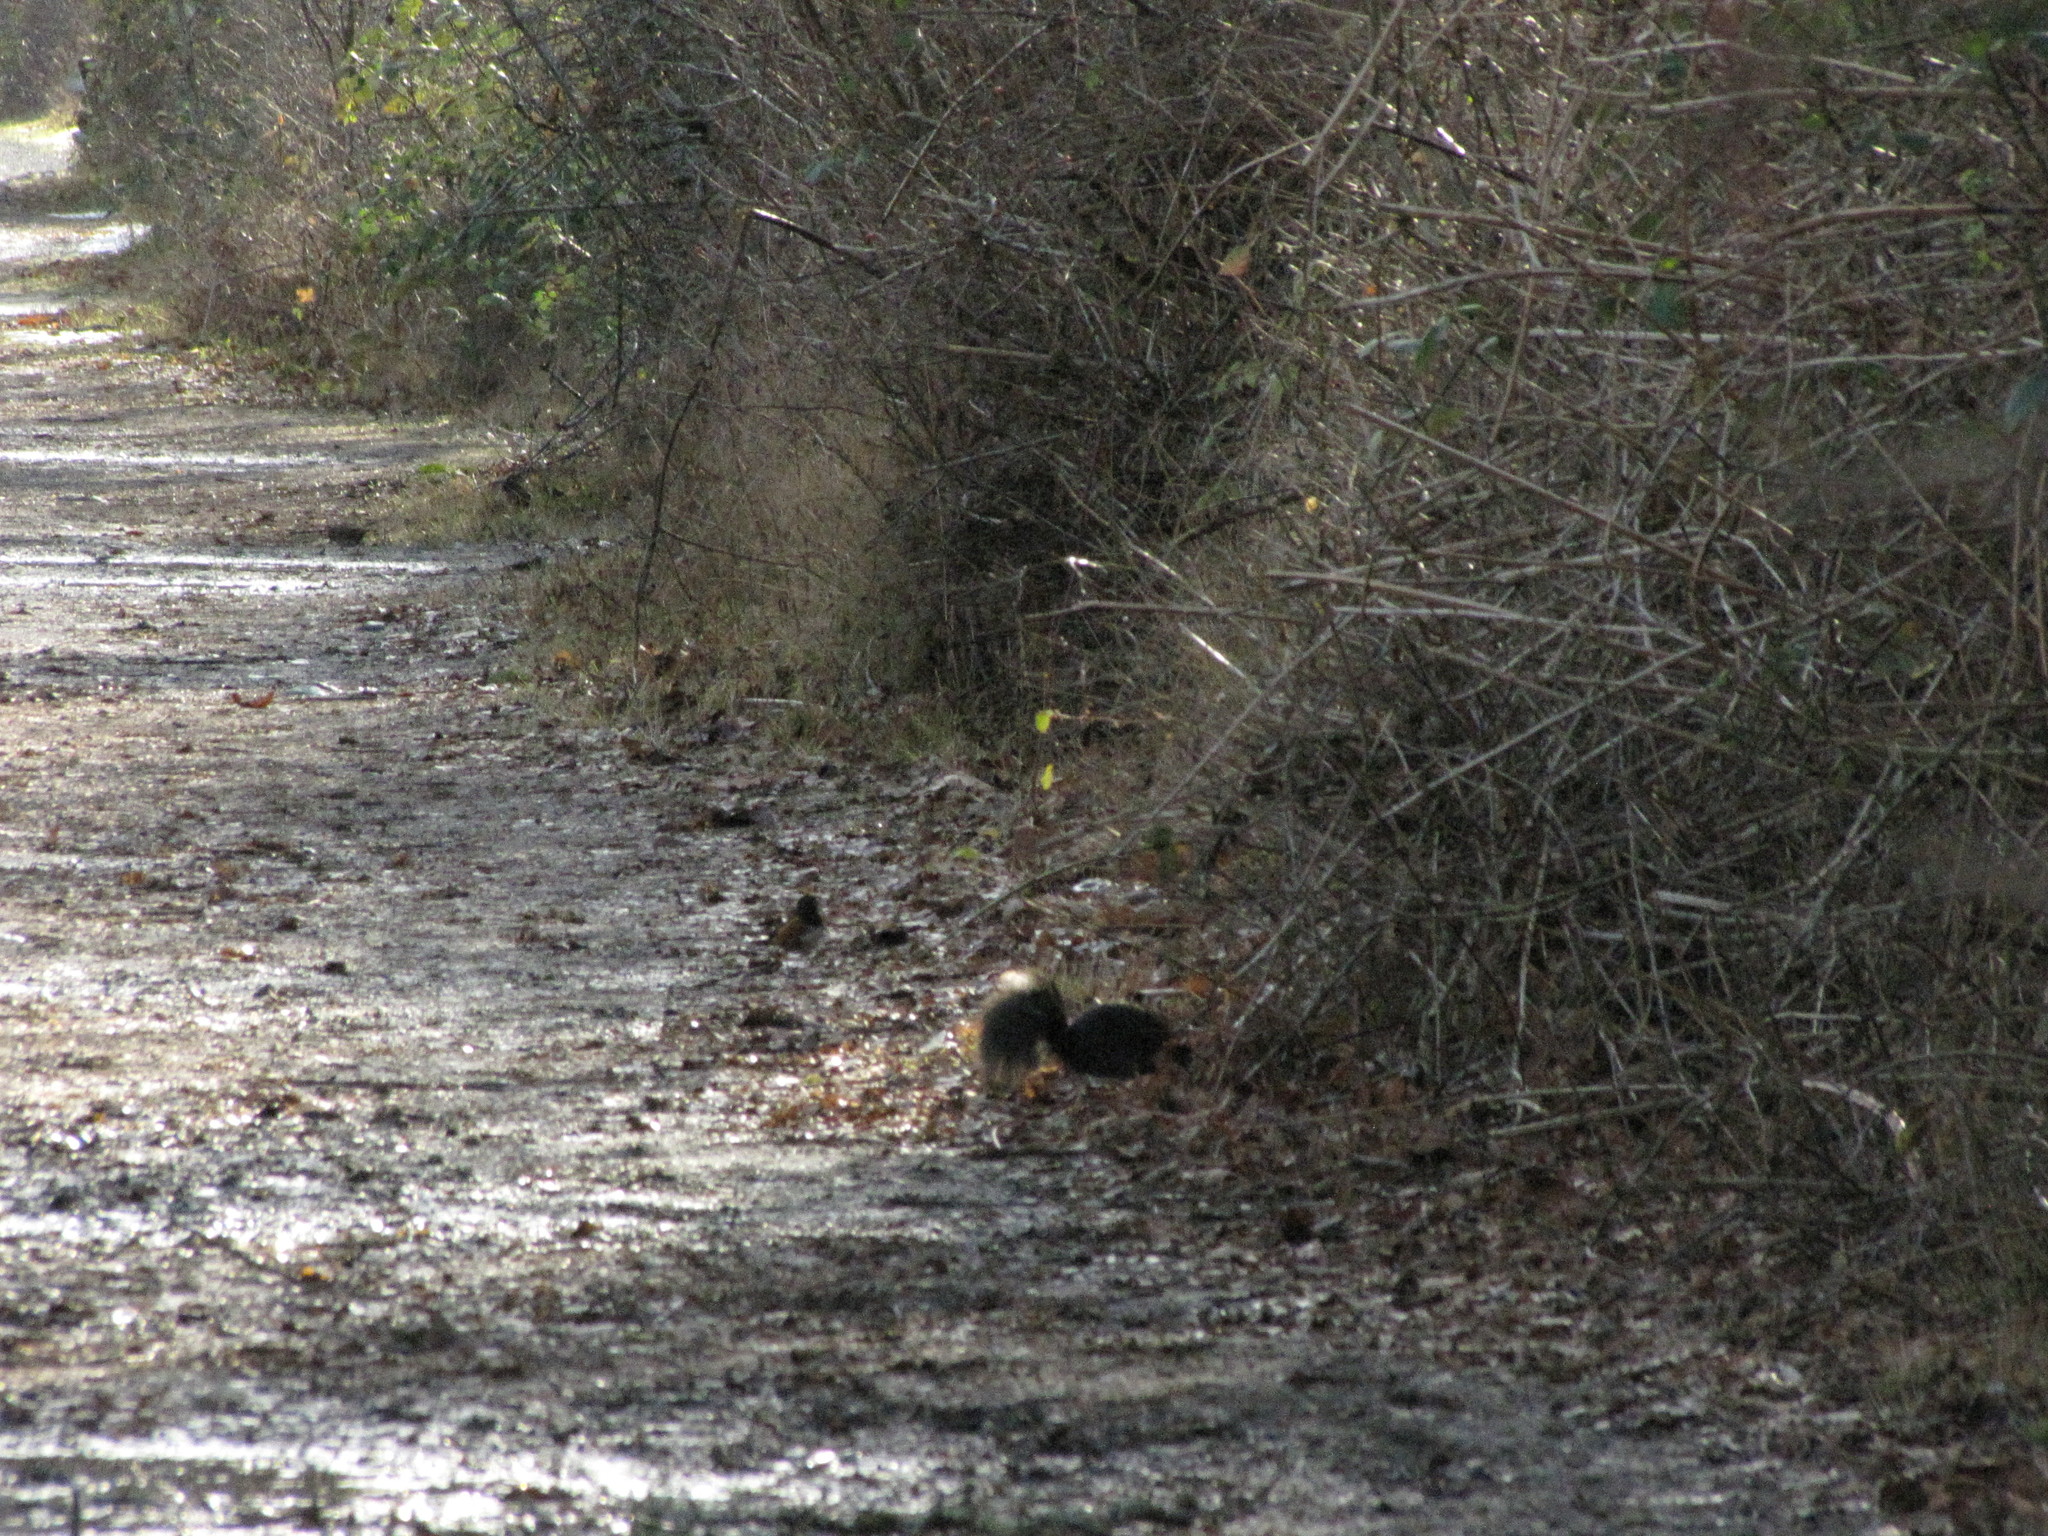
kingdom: Animalia
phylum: Chordata
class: Mammalia
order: Rodentia
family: Sciuridae
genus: Sciurus
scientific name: Sciurus carolinensis
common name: Eastern gray squirrel
